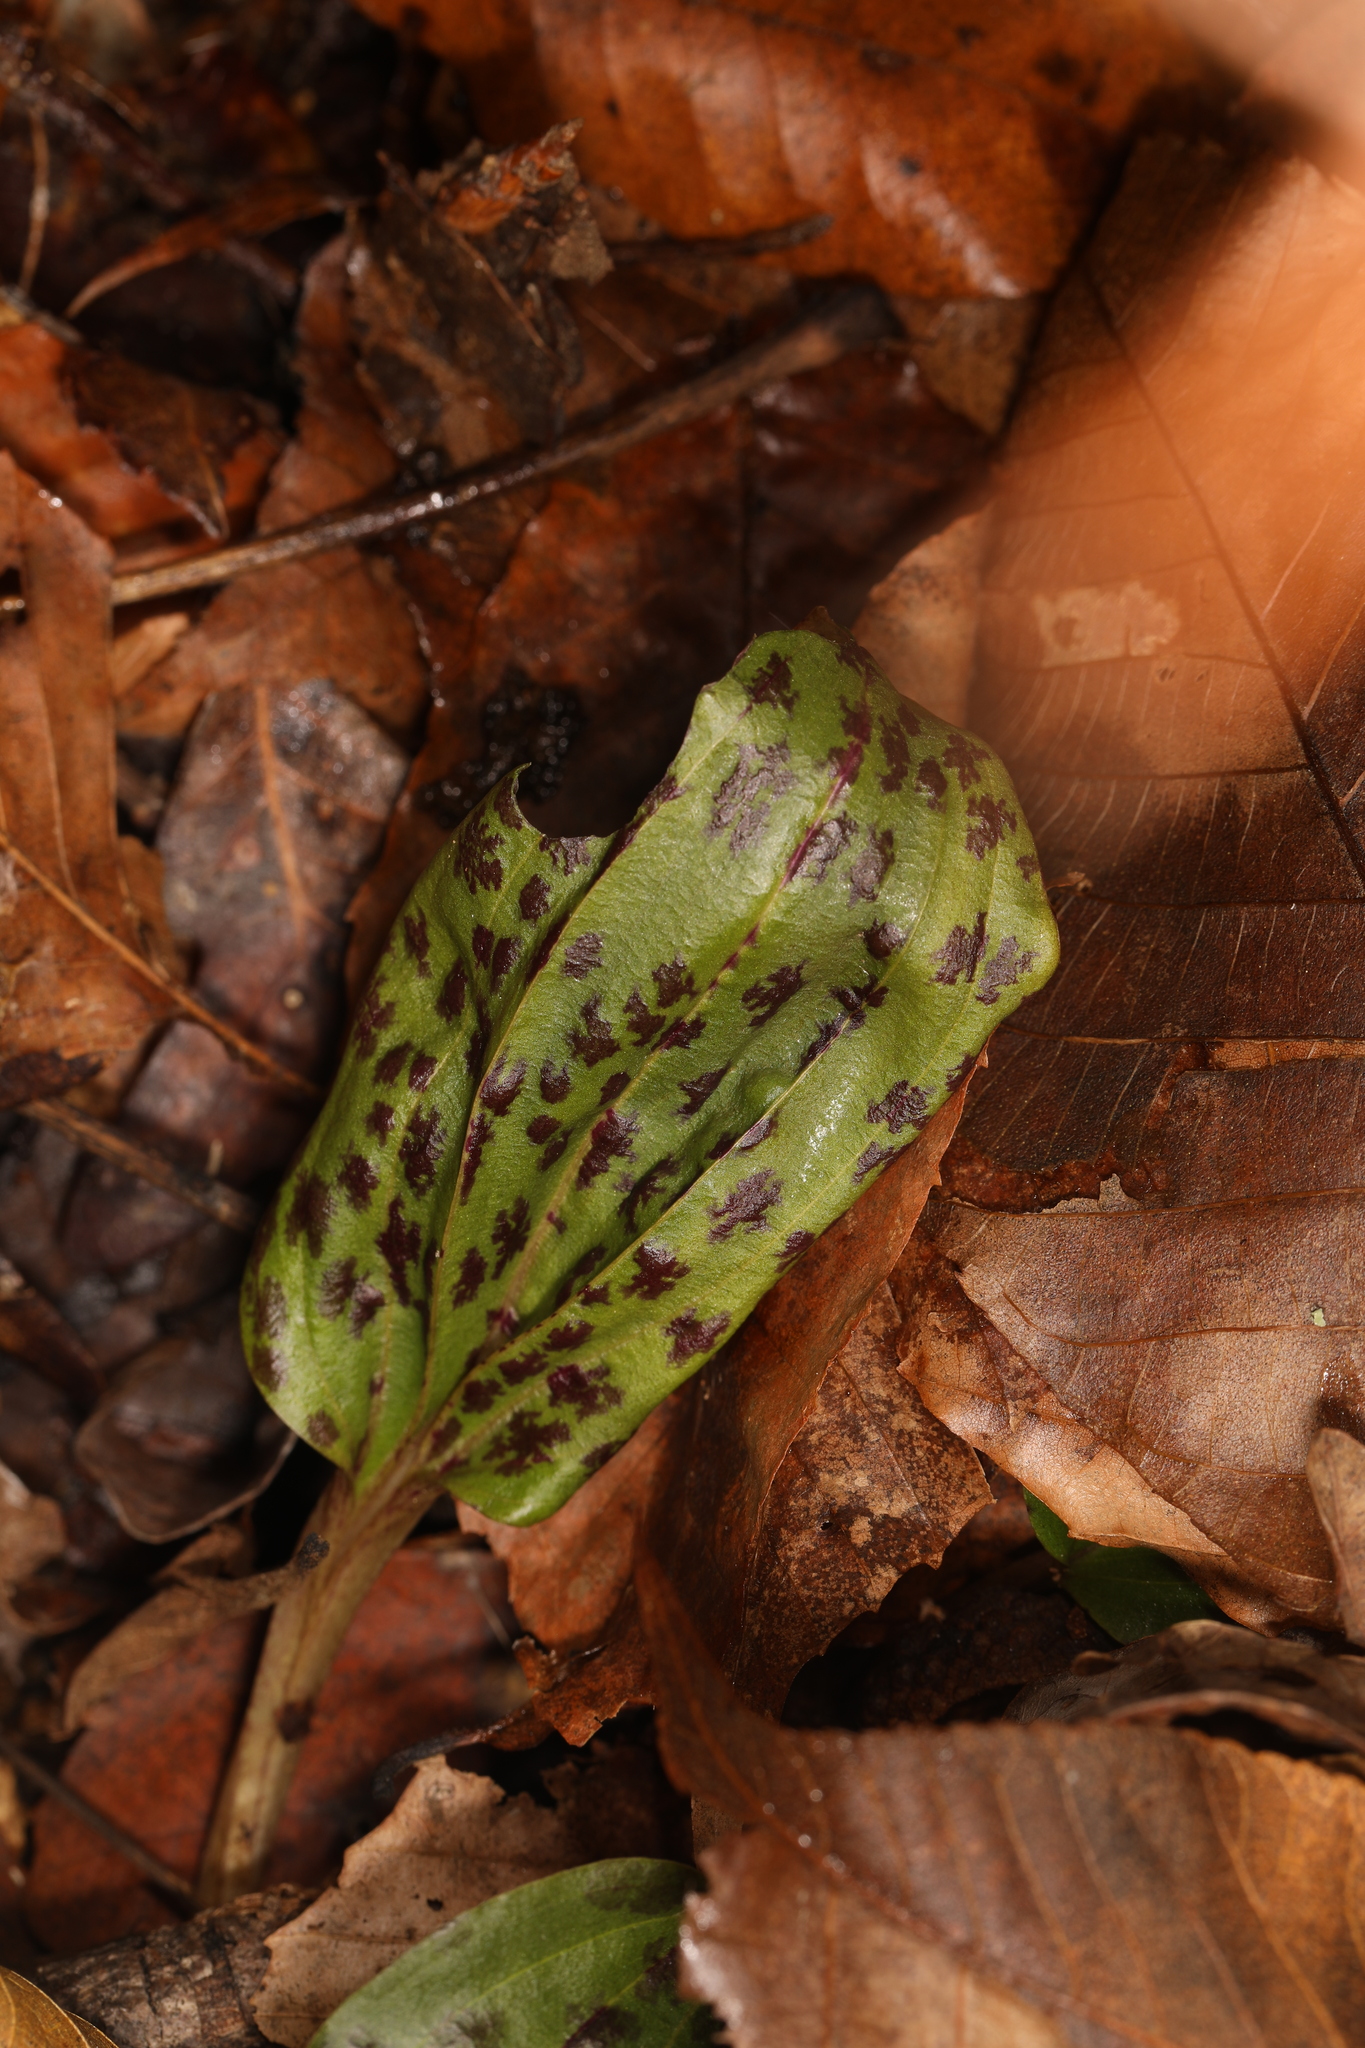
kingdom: Plantae
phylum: Tracheophyta
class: Liliopsida
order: Asparagales
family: Orchidaceae
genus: Tipularia
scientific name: Tipularia discolor
